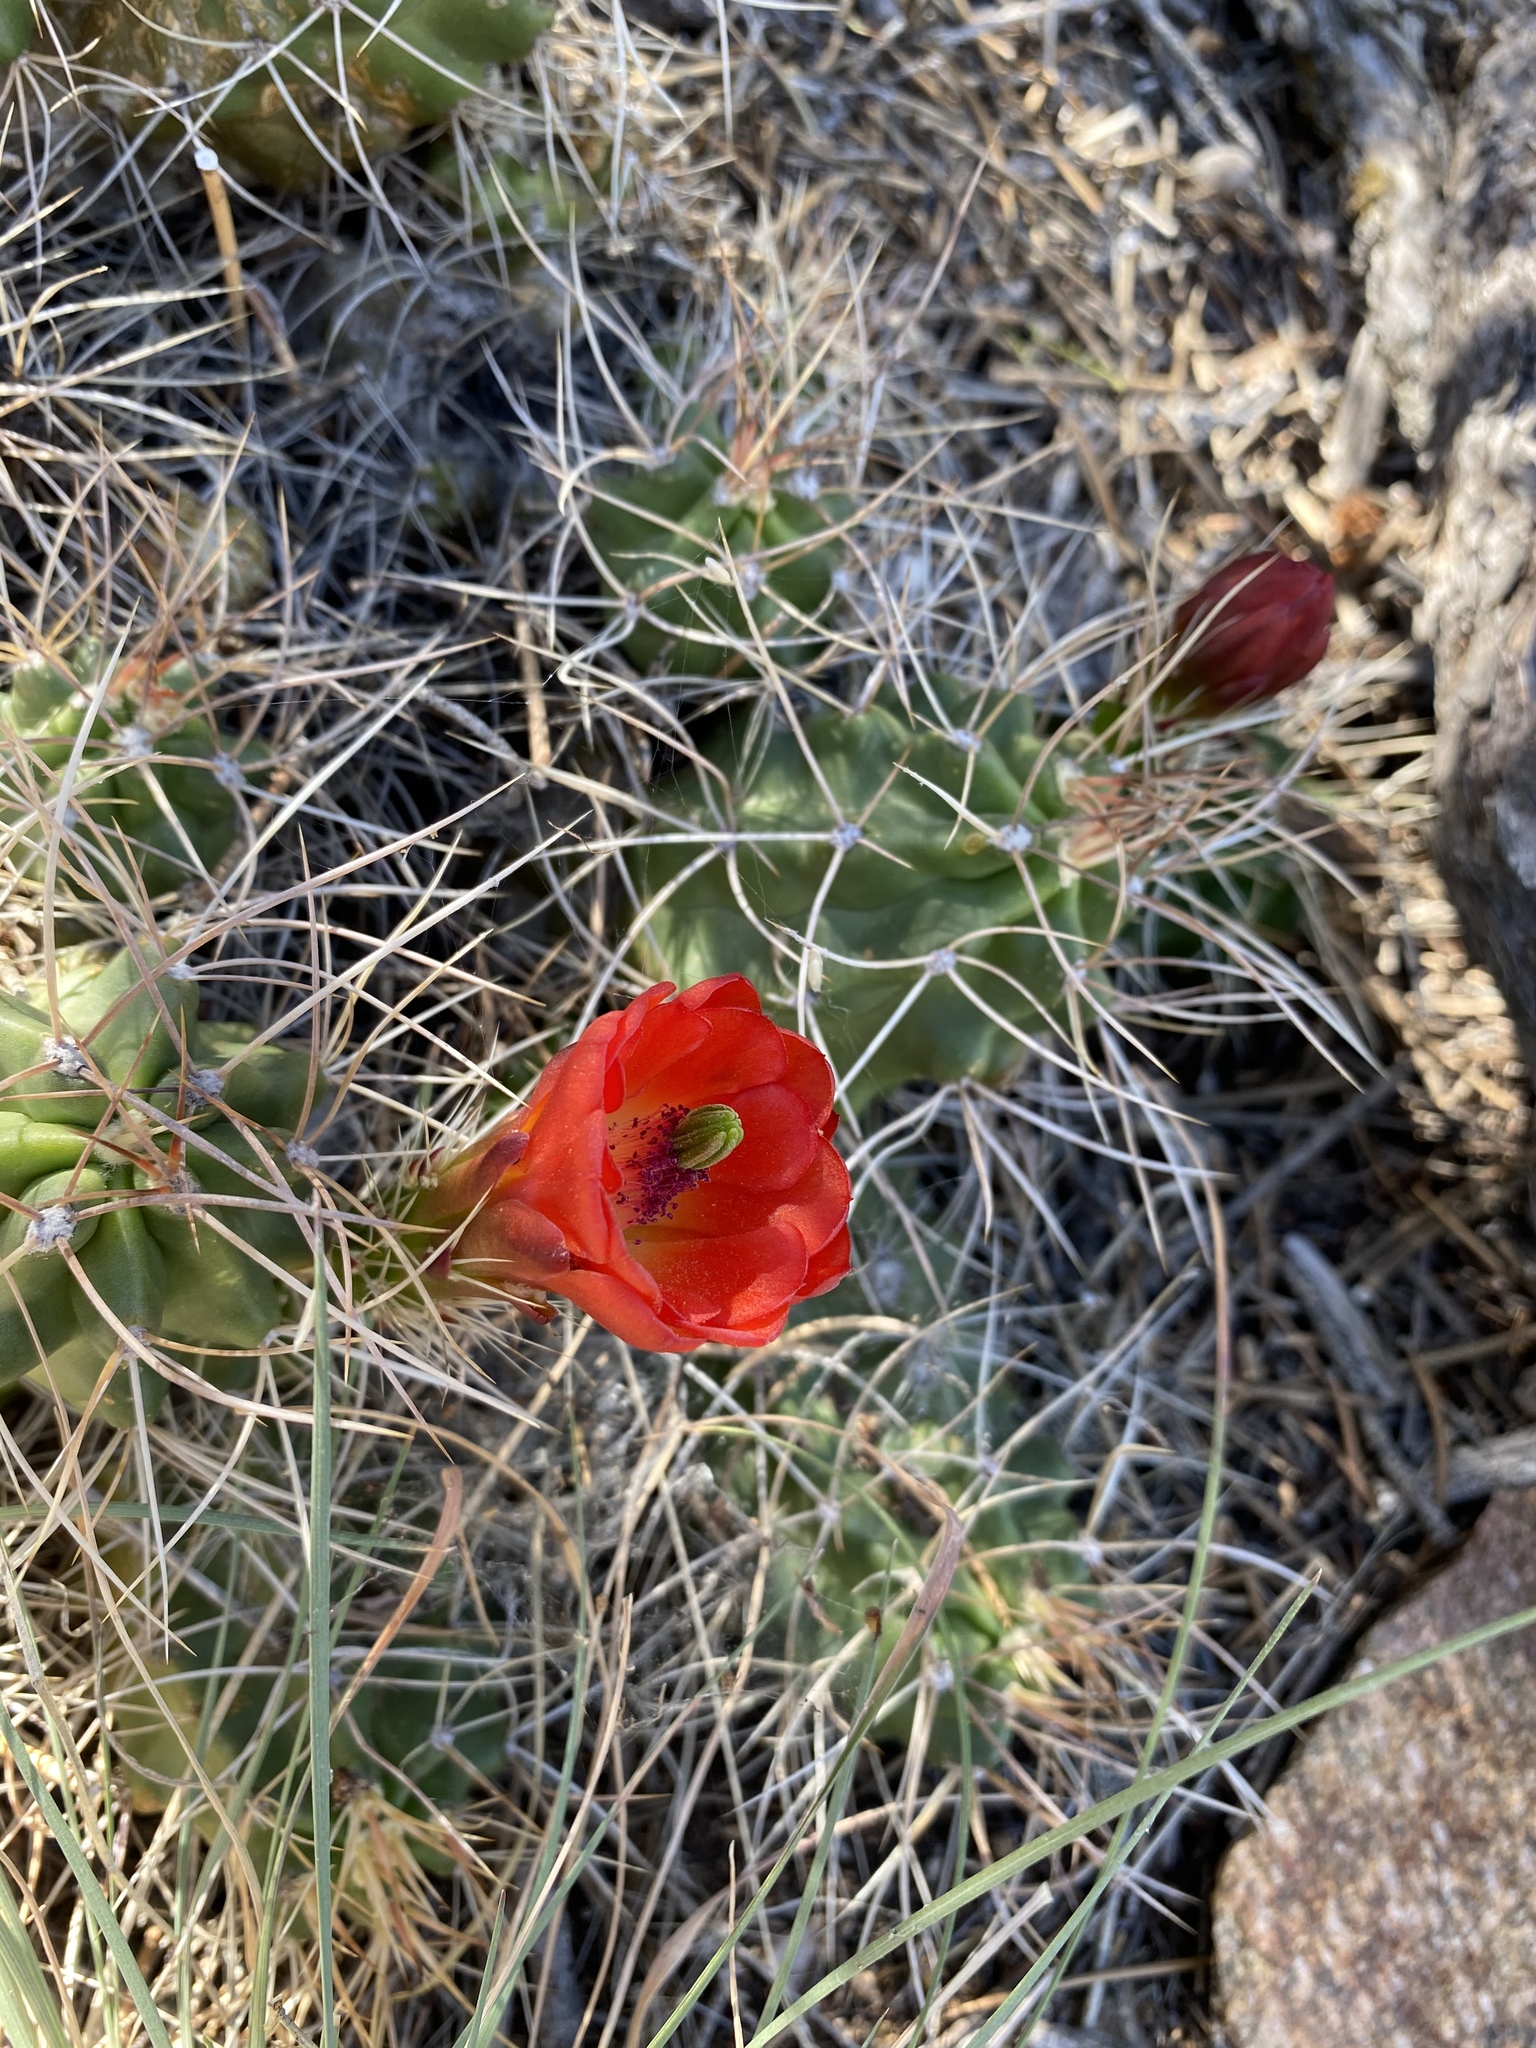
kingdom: Plantae
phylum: Tracheophyta
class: Magnoliopsida
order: Caryophyllales
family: Cactaceae
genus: Echinocereus
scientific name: Echinocereus triglochidiatus
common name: Claretcup hedgehog
